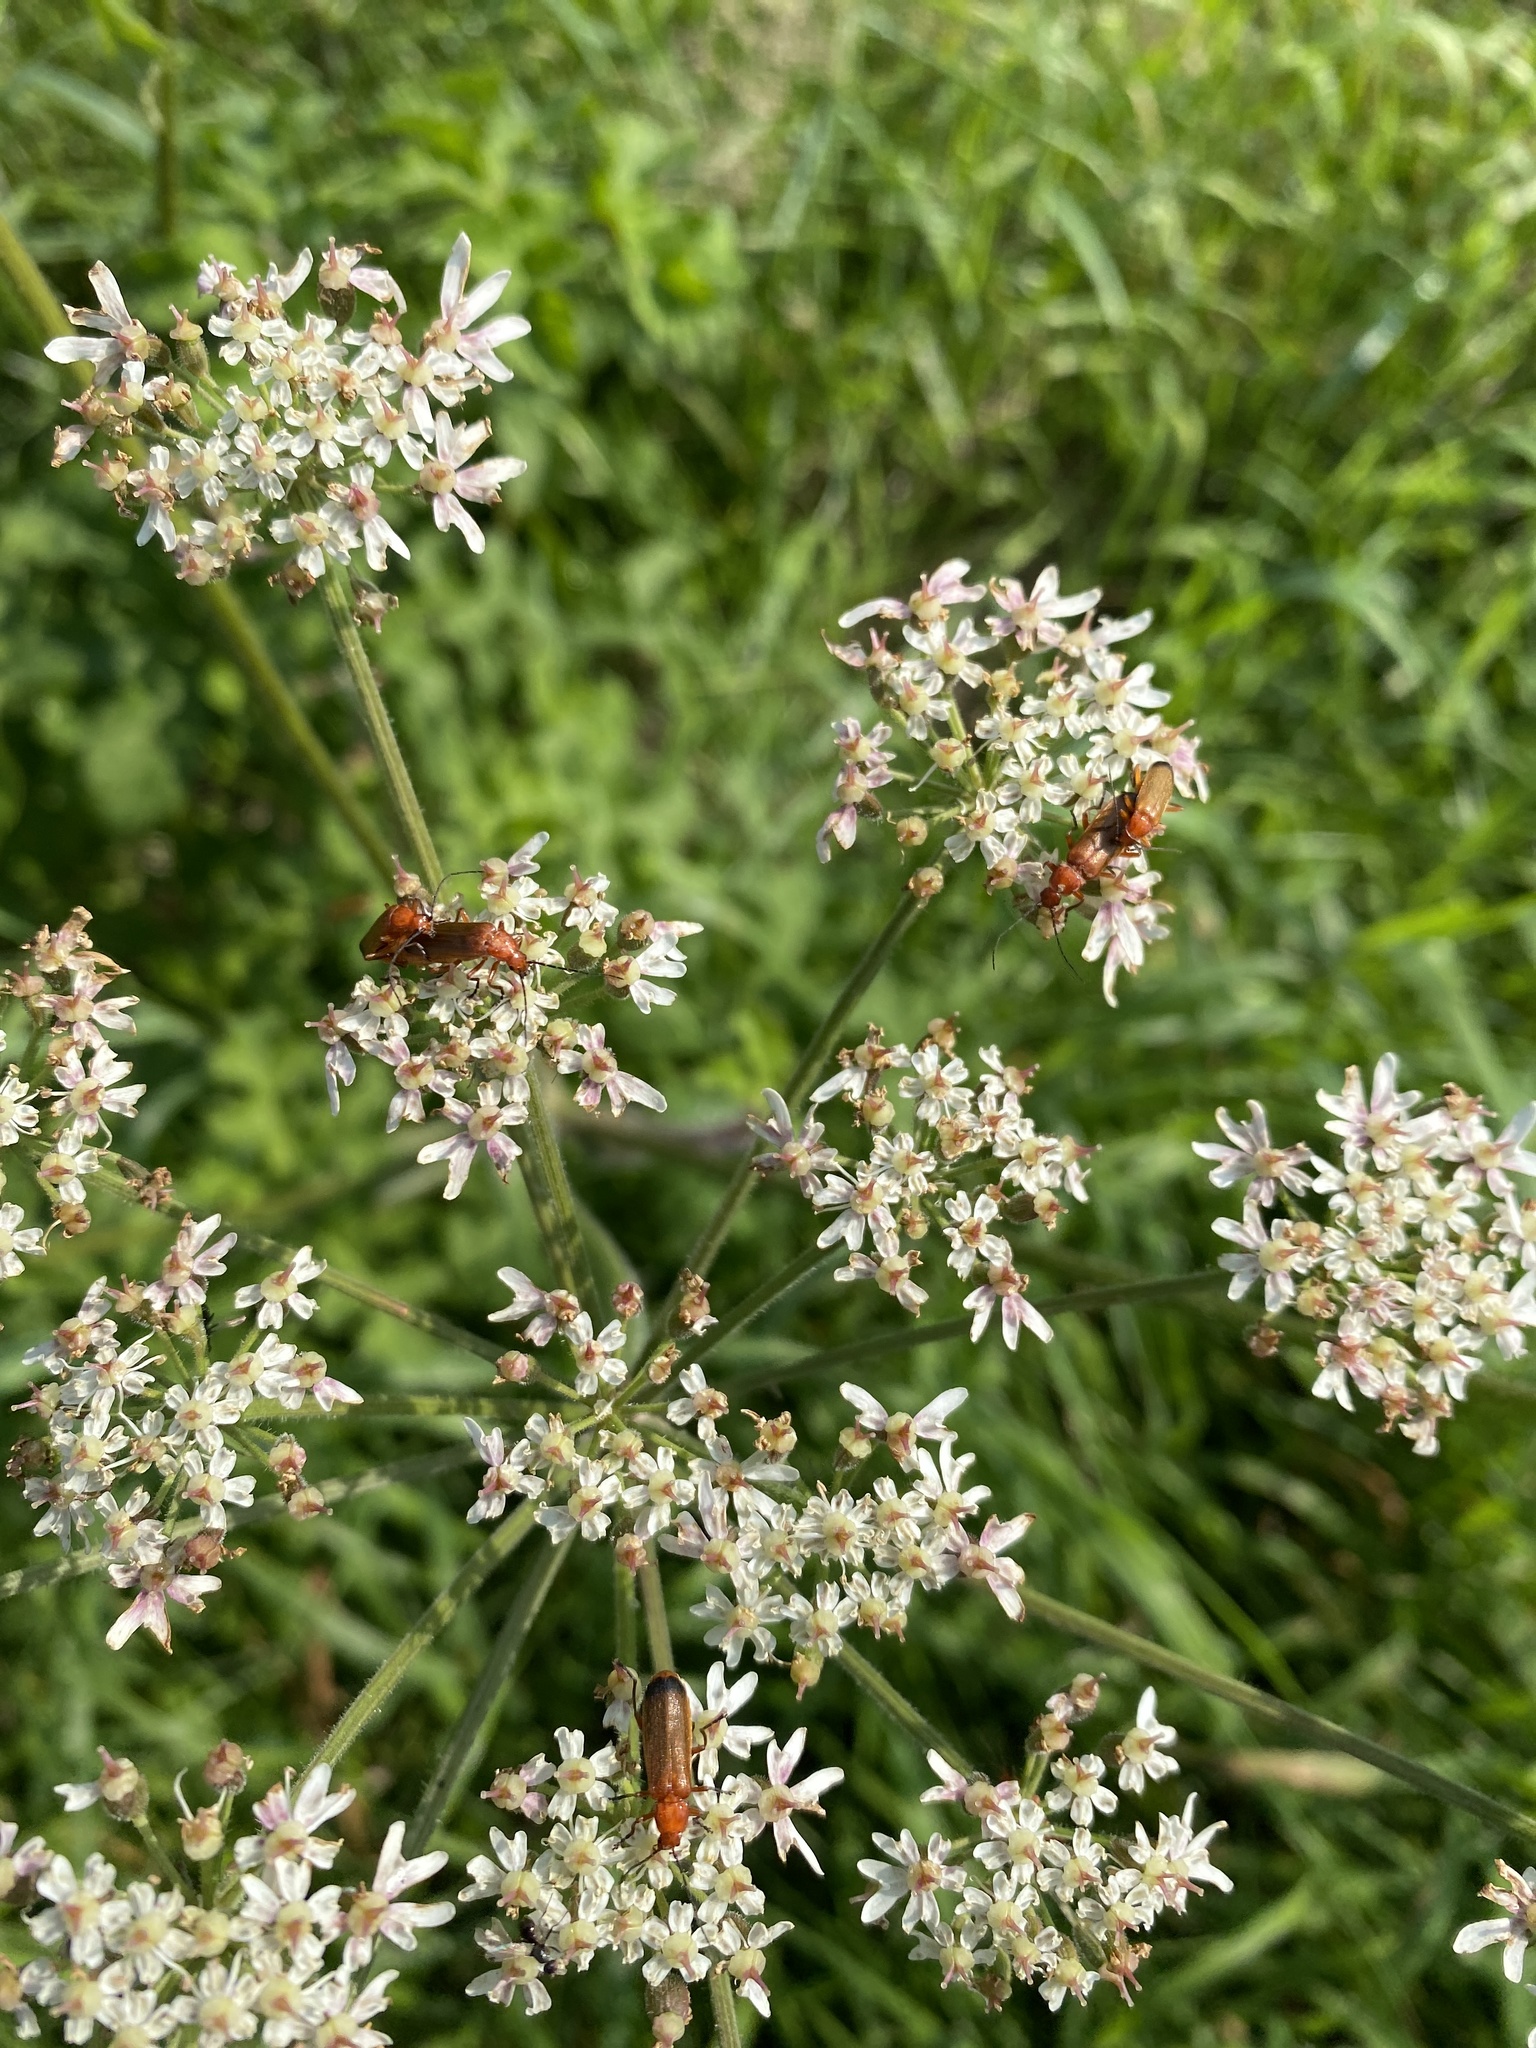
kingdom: Animalia
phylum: Arthropoda
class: Insecta
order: Coleoptera
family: Cantharidae
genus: Rhagonycha
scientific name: Rhagonycha fulva
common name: Common red soldier beetle
